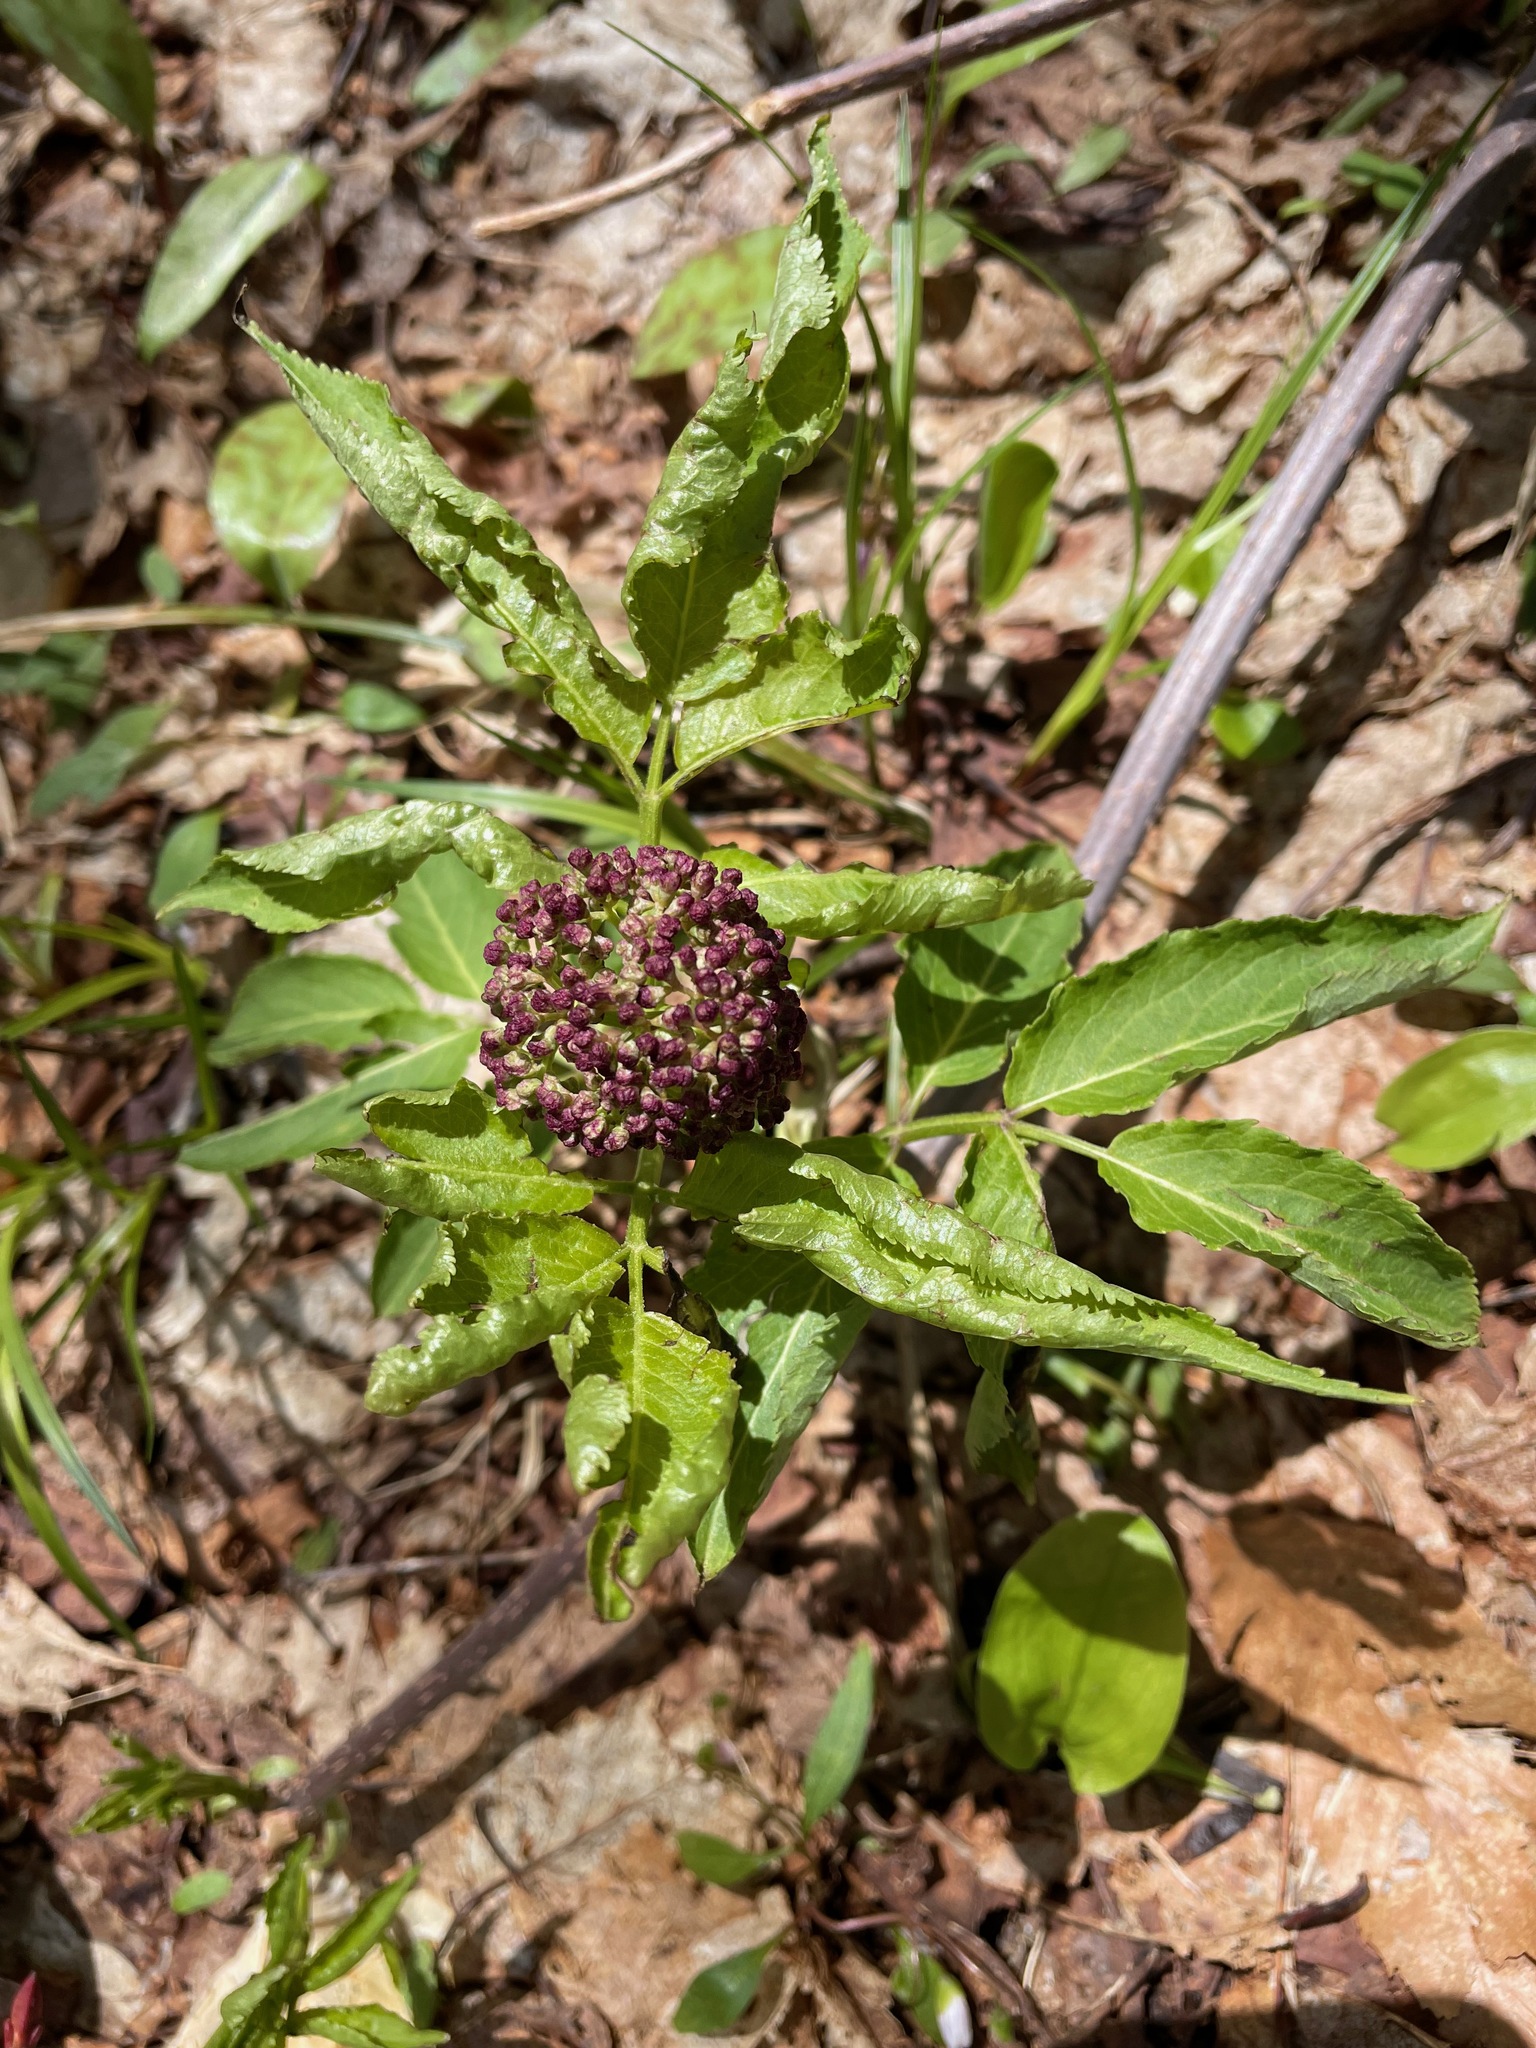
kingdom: Plantae
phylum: Tracheophyta
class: Magnoliopsida
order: Dipsacales
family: Viburnaceae
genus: Sambucus
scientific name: Sambucus racemosa
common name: Red-berried elder
